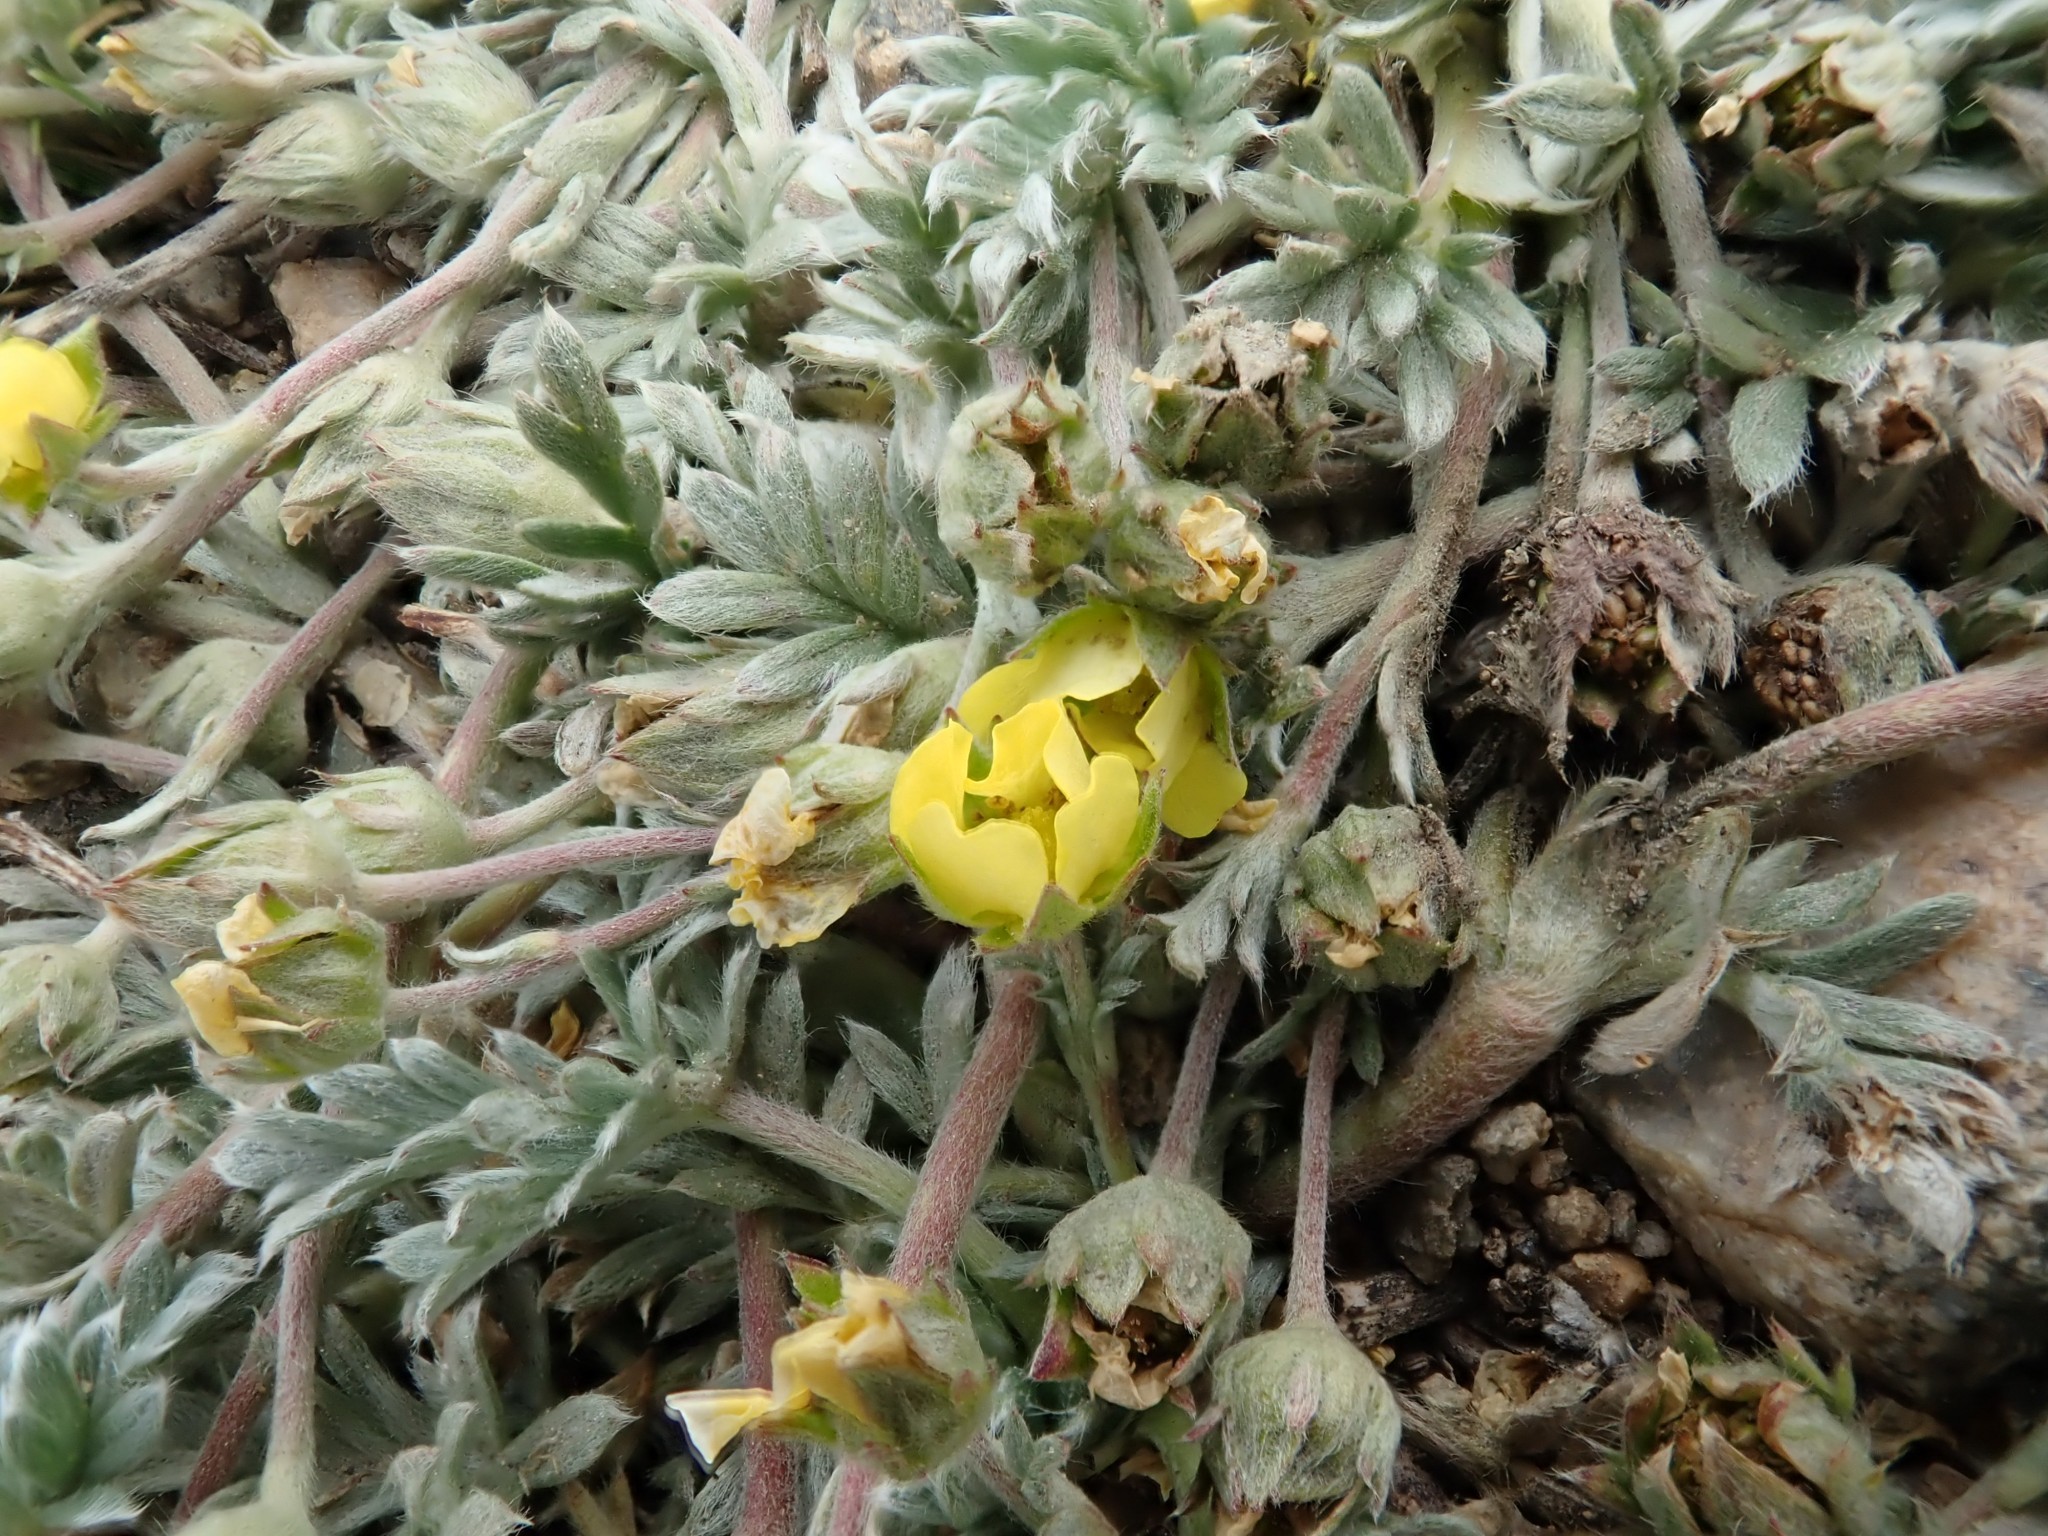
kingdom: Plantae
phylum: Tracheophyta
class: Magnoliopsida
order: Rosales
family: Rosaceae
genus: Potentilla
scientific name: Potentilla pseudosericea
